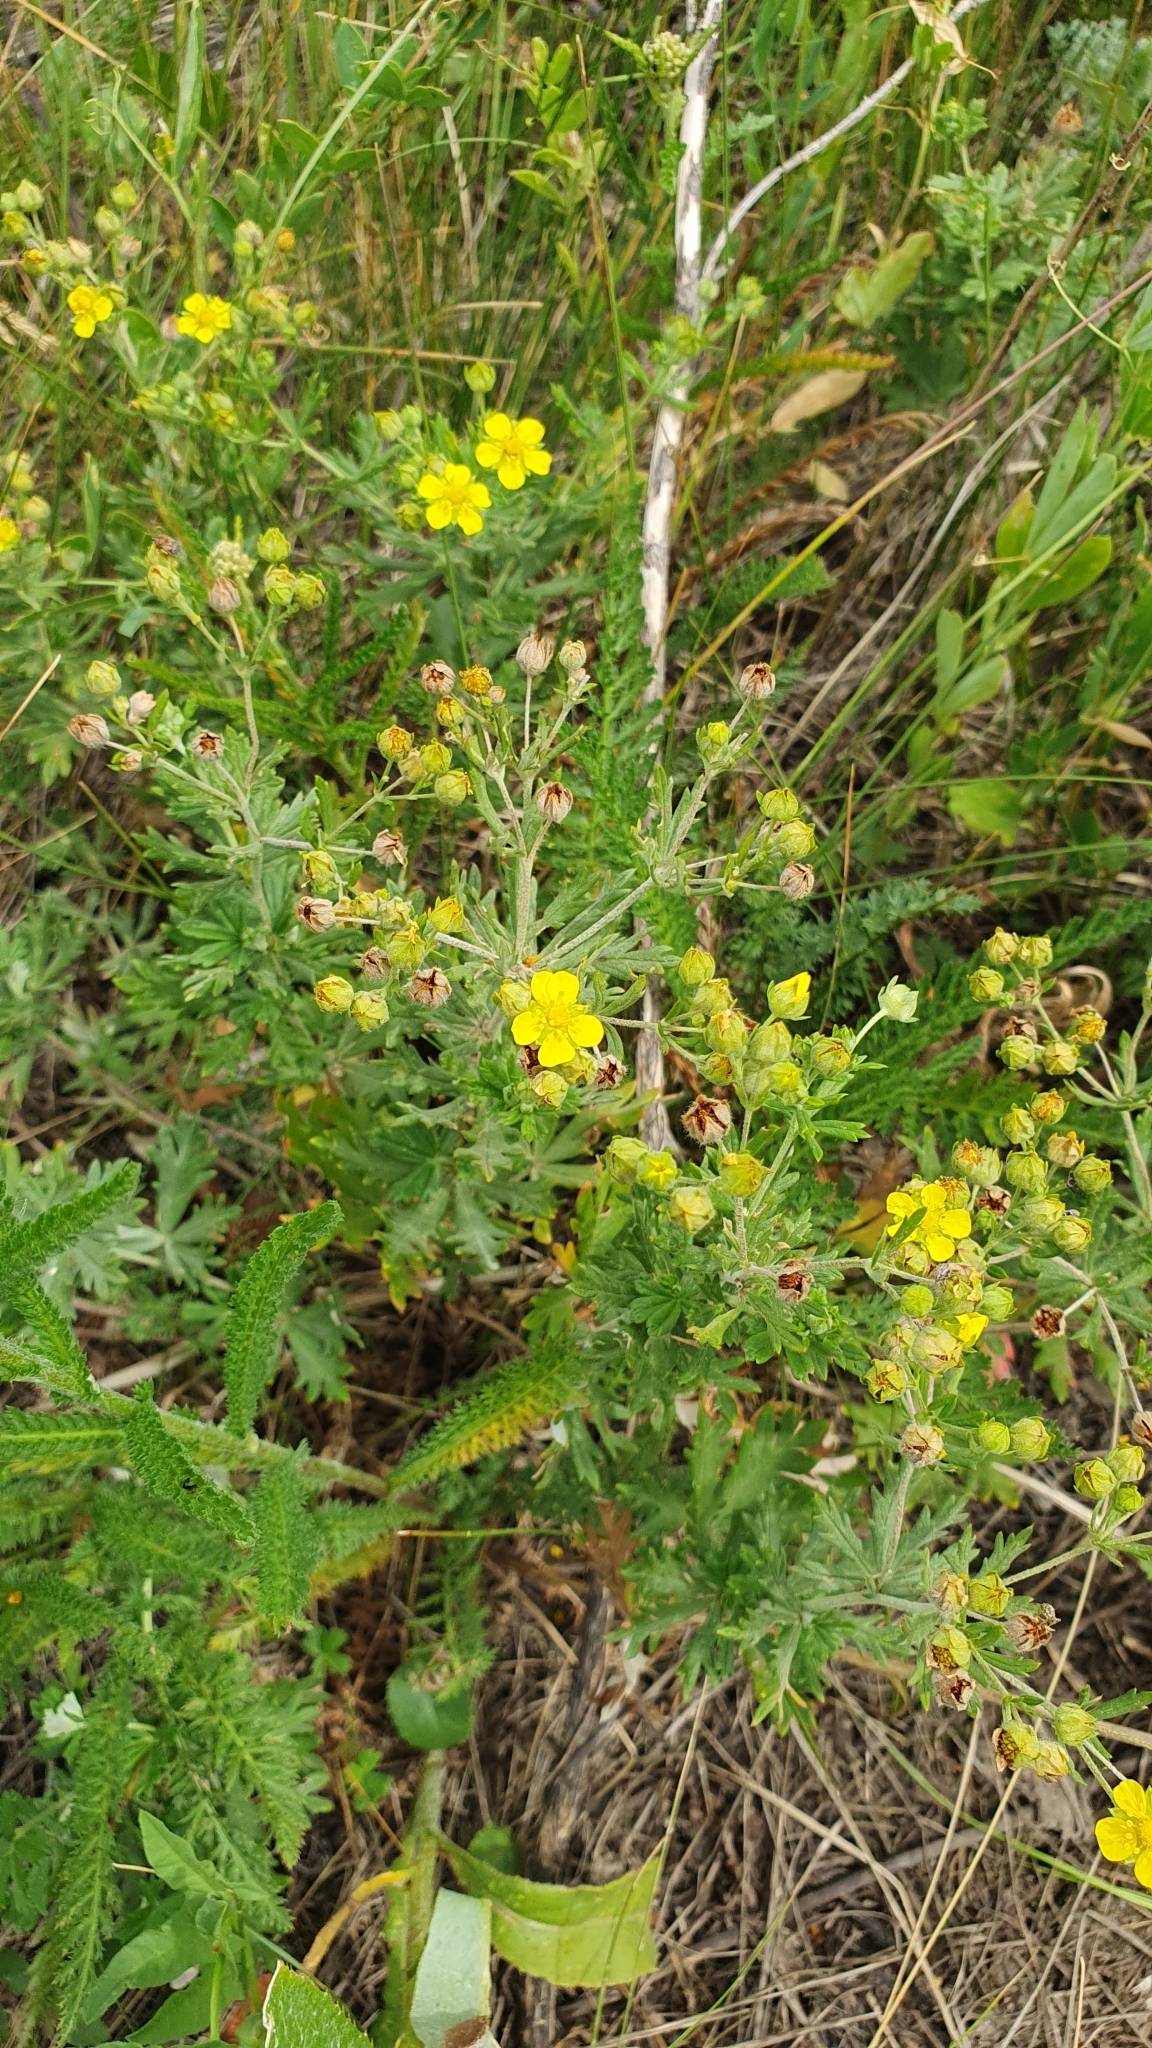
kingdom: Plantae
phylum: Tracheophyta
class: Magnoliopsida
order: Rosales
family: Rosaceae
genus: Potentilla
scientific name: Potentilla argentea
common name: Hoary cinquefoil
